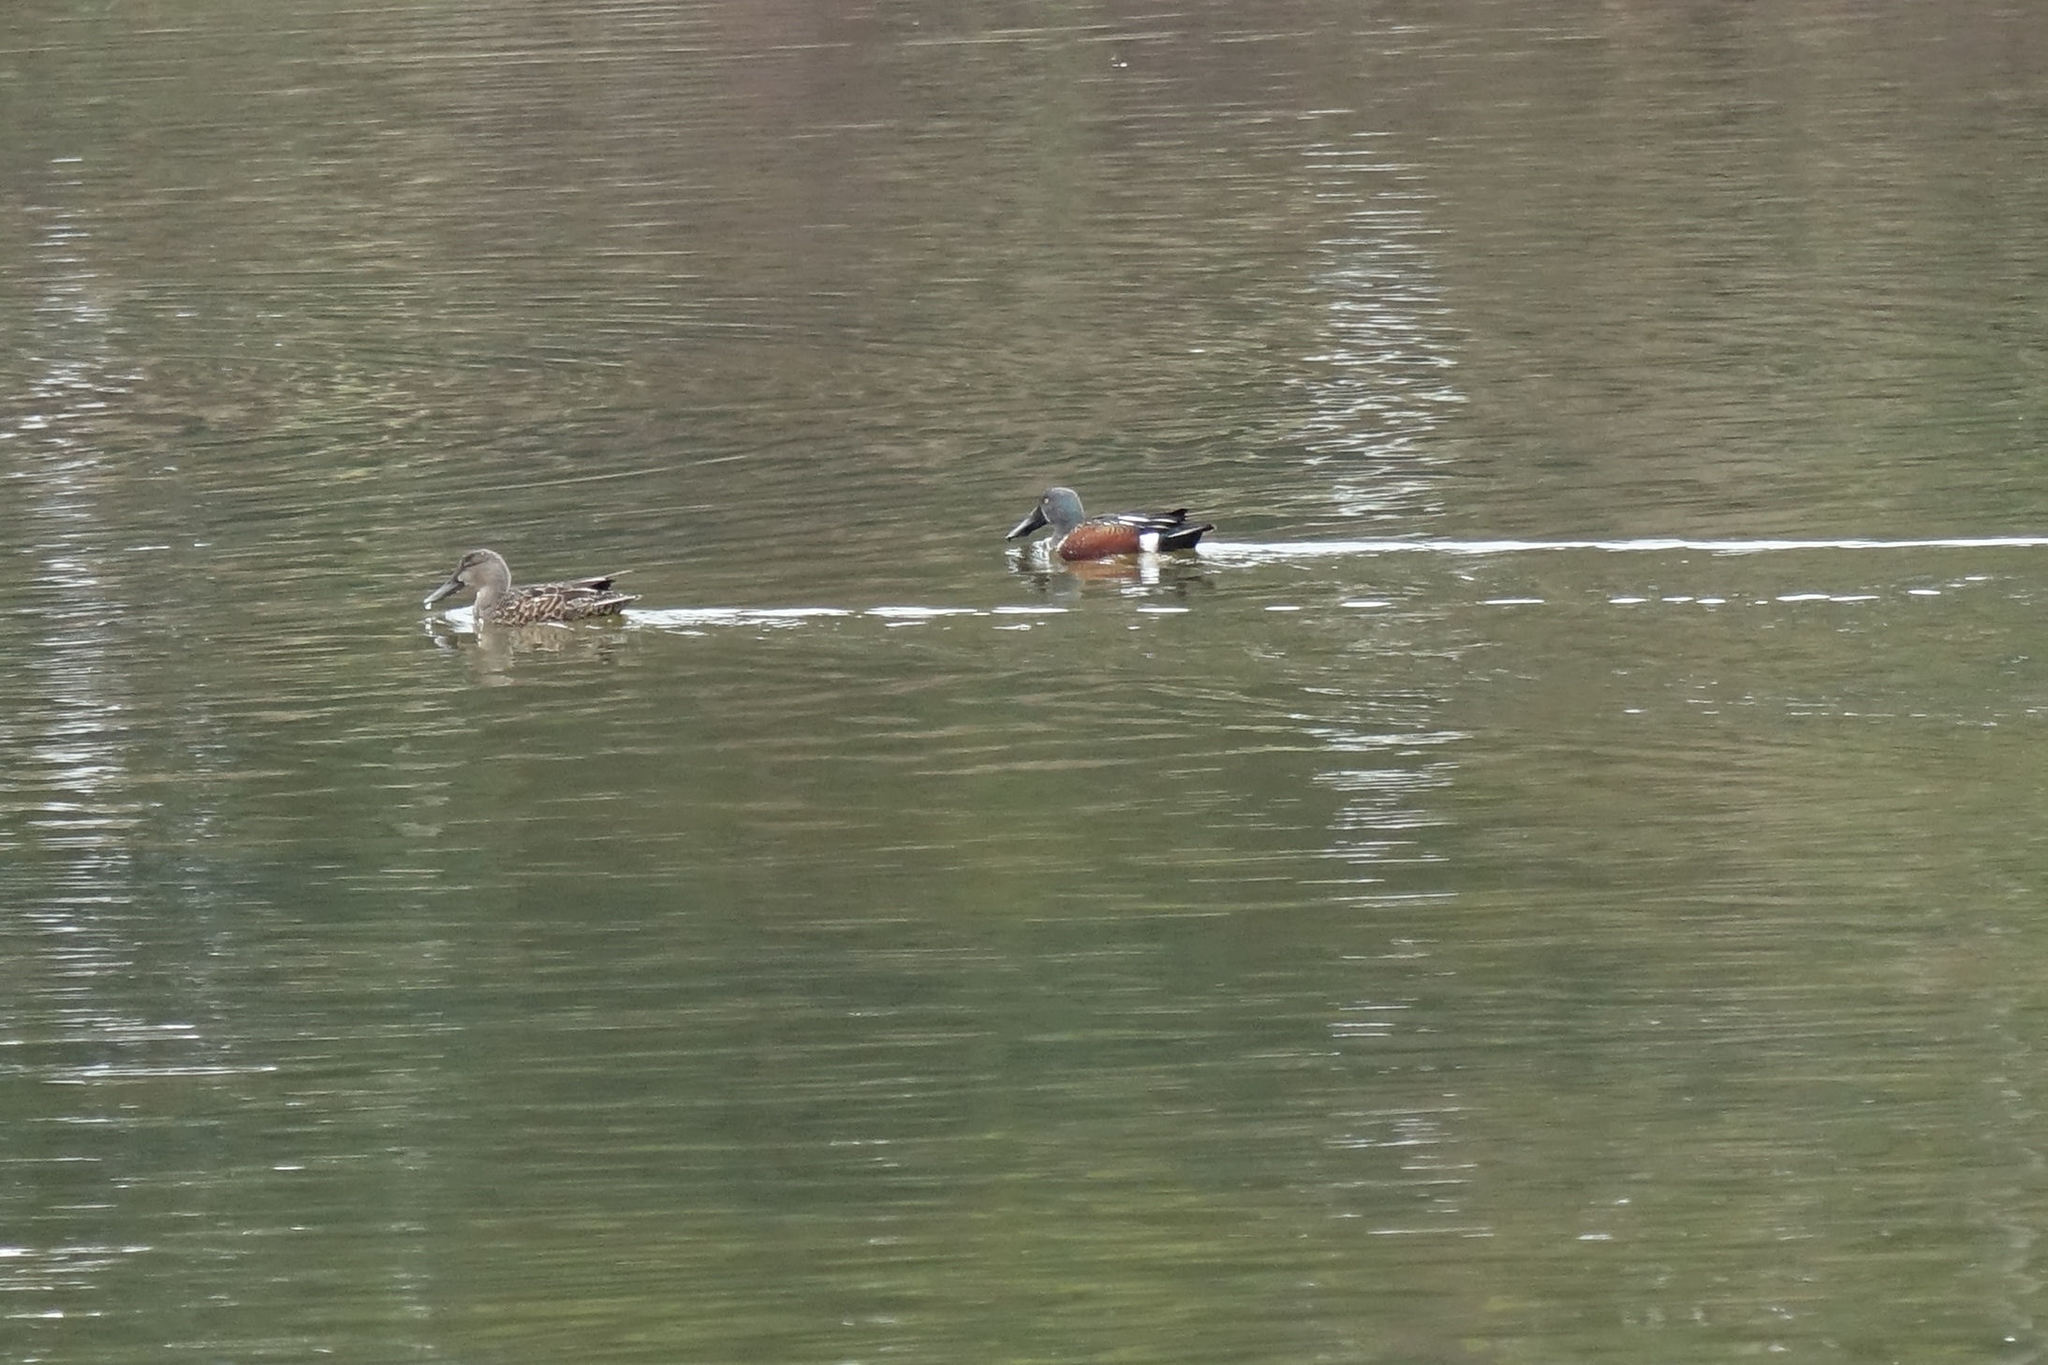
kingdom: Animalia
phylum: Chordata
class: Aves
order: Anseriformes
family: Anatidae
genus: Spatula
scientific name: Spatula rhynchotis
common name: Australian shoveler
